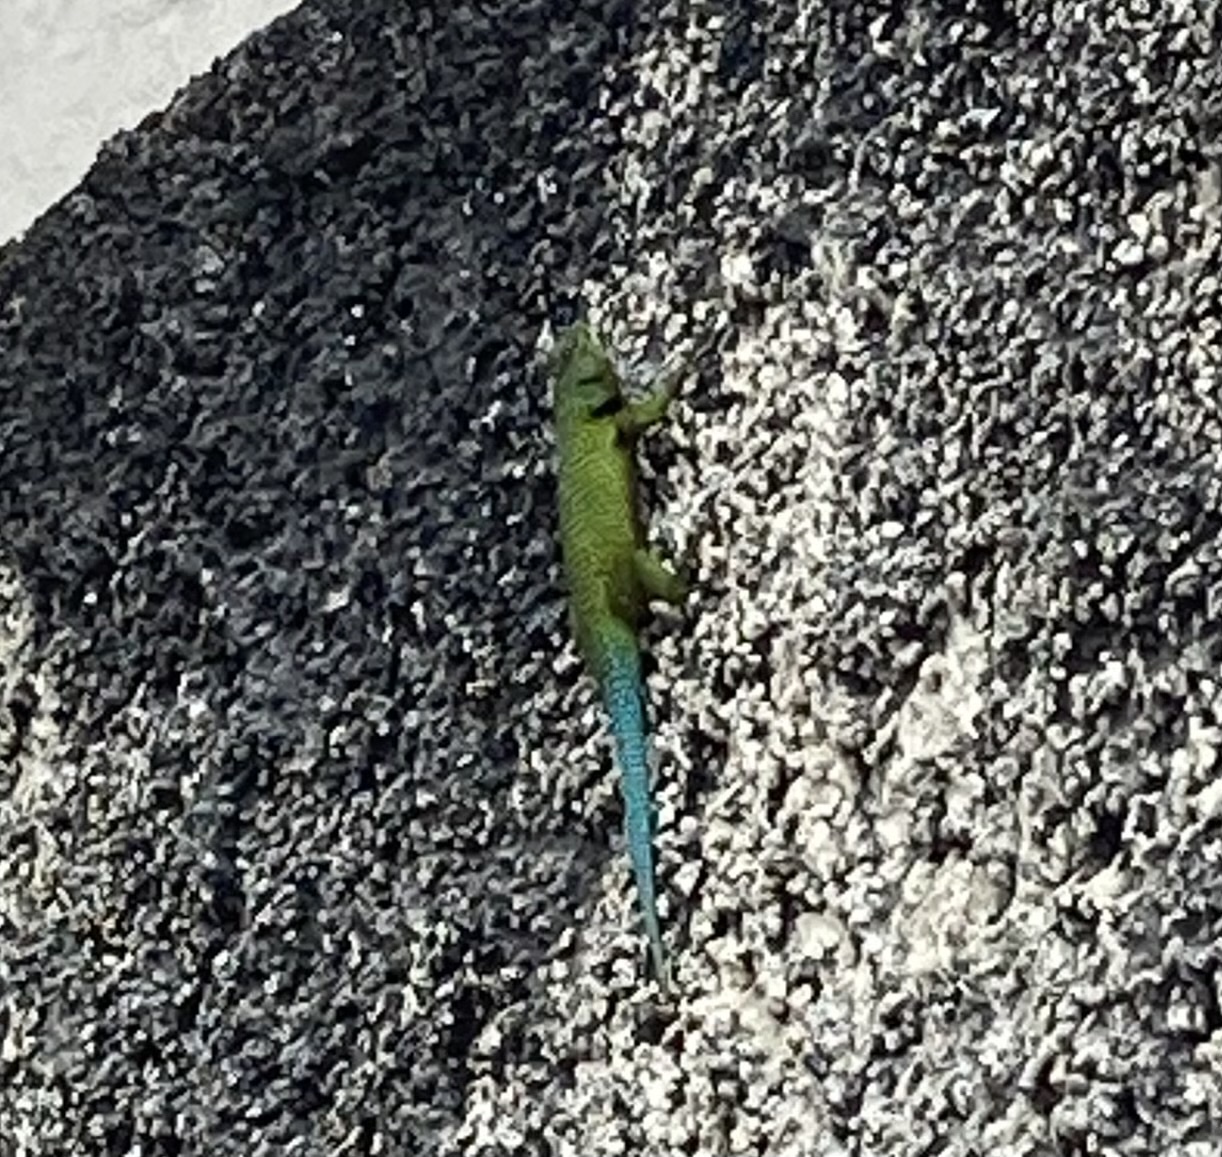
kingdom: Animalia
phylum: Chordata
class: Squamata
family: Phrynosomatidae
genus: Sceloporus
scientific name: Sceloporus smaragdinus
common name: Bocourt’s emerald lizard
